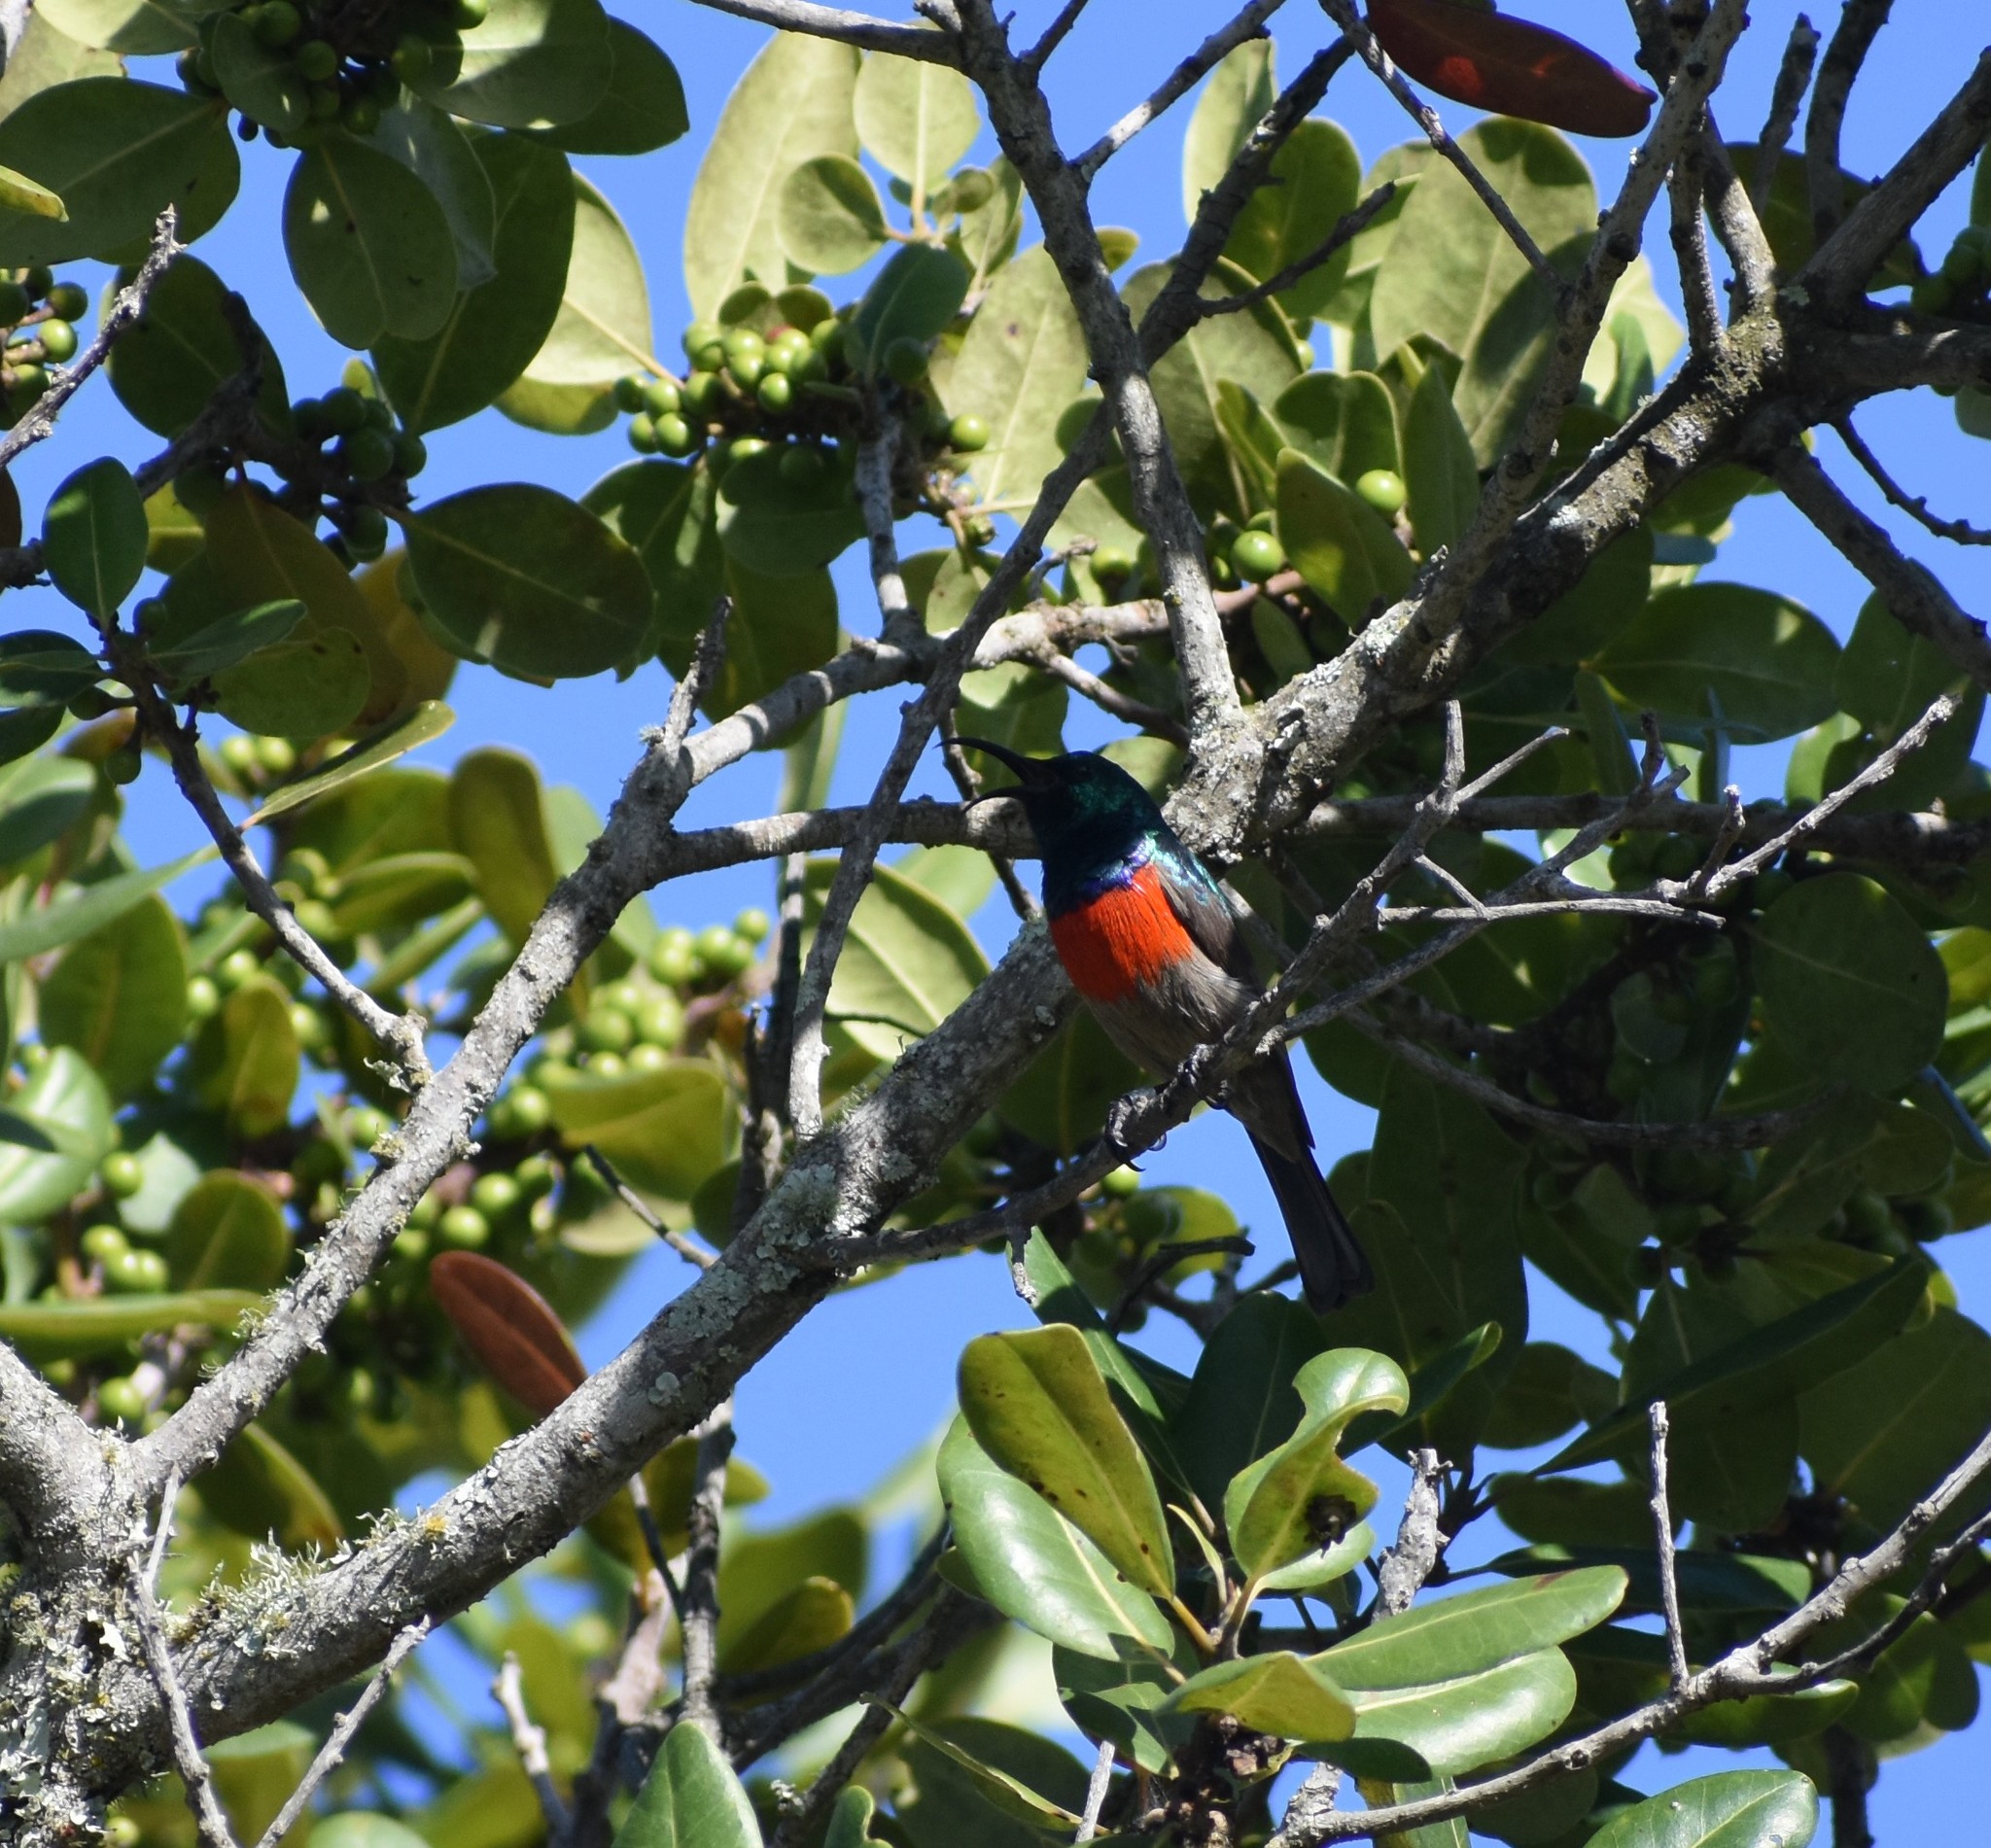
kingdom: Animalia
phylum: Chordata
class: Aves
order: Passeriformes
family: Nectariniidae
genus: Cinnyris
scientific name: Cinnyris afer
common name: Greater double-collared sunbird
